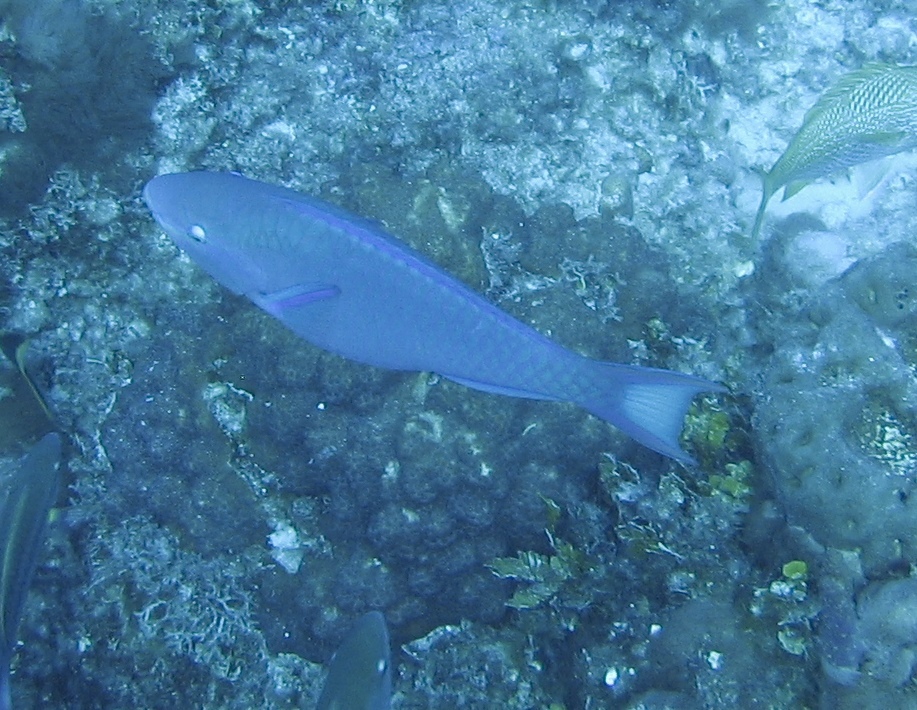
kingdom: Animalia
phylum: Chordata
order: Perciformes
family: Scaridae
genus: Scarus
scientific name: Scarus vetula
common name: Queen parrotfish
